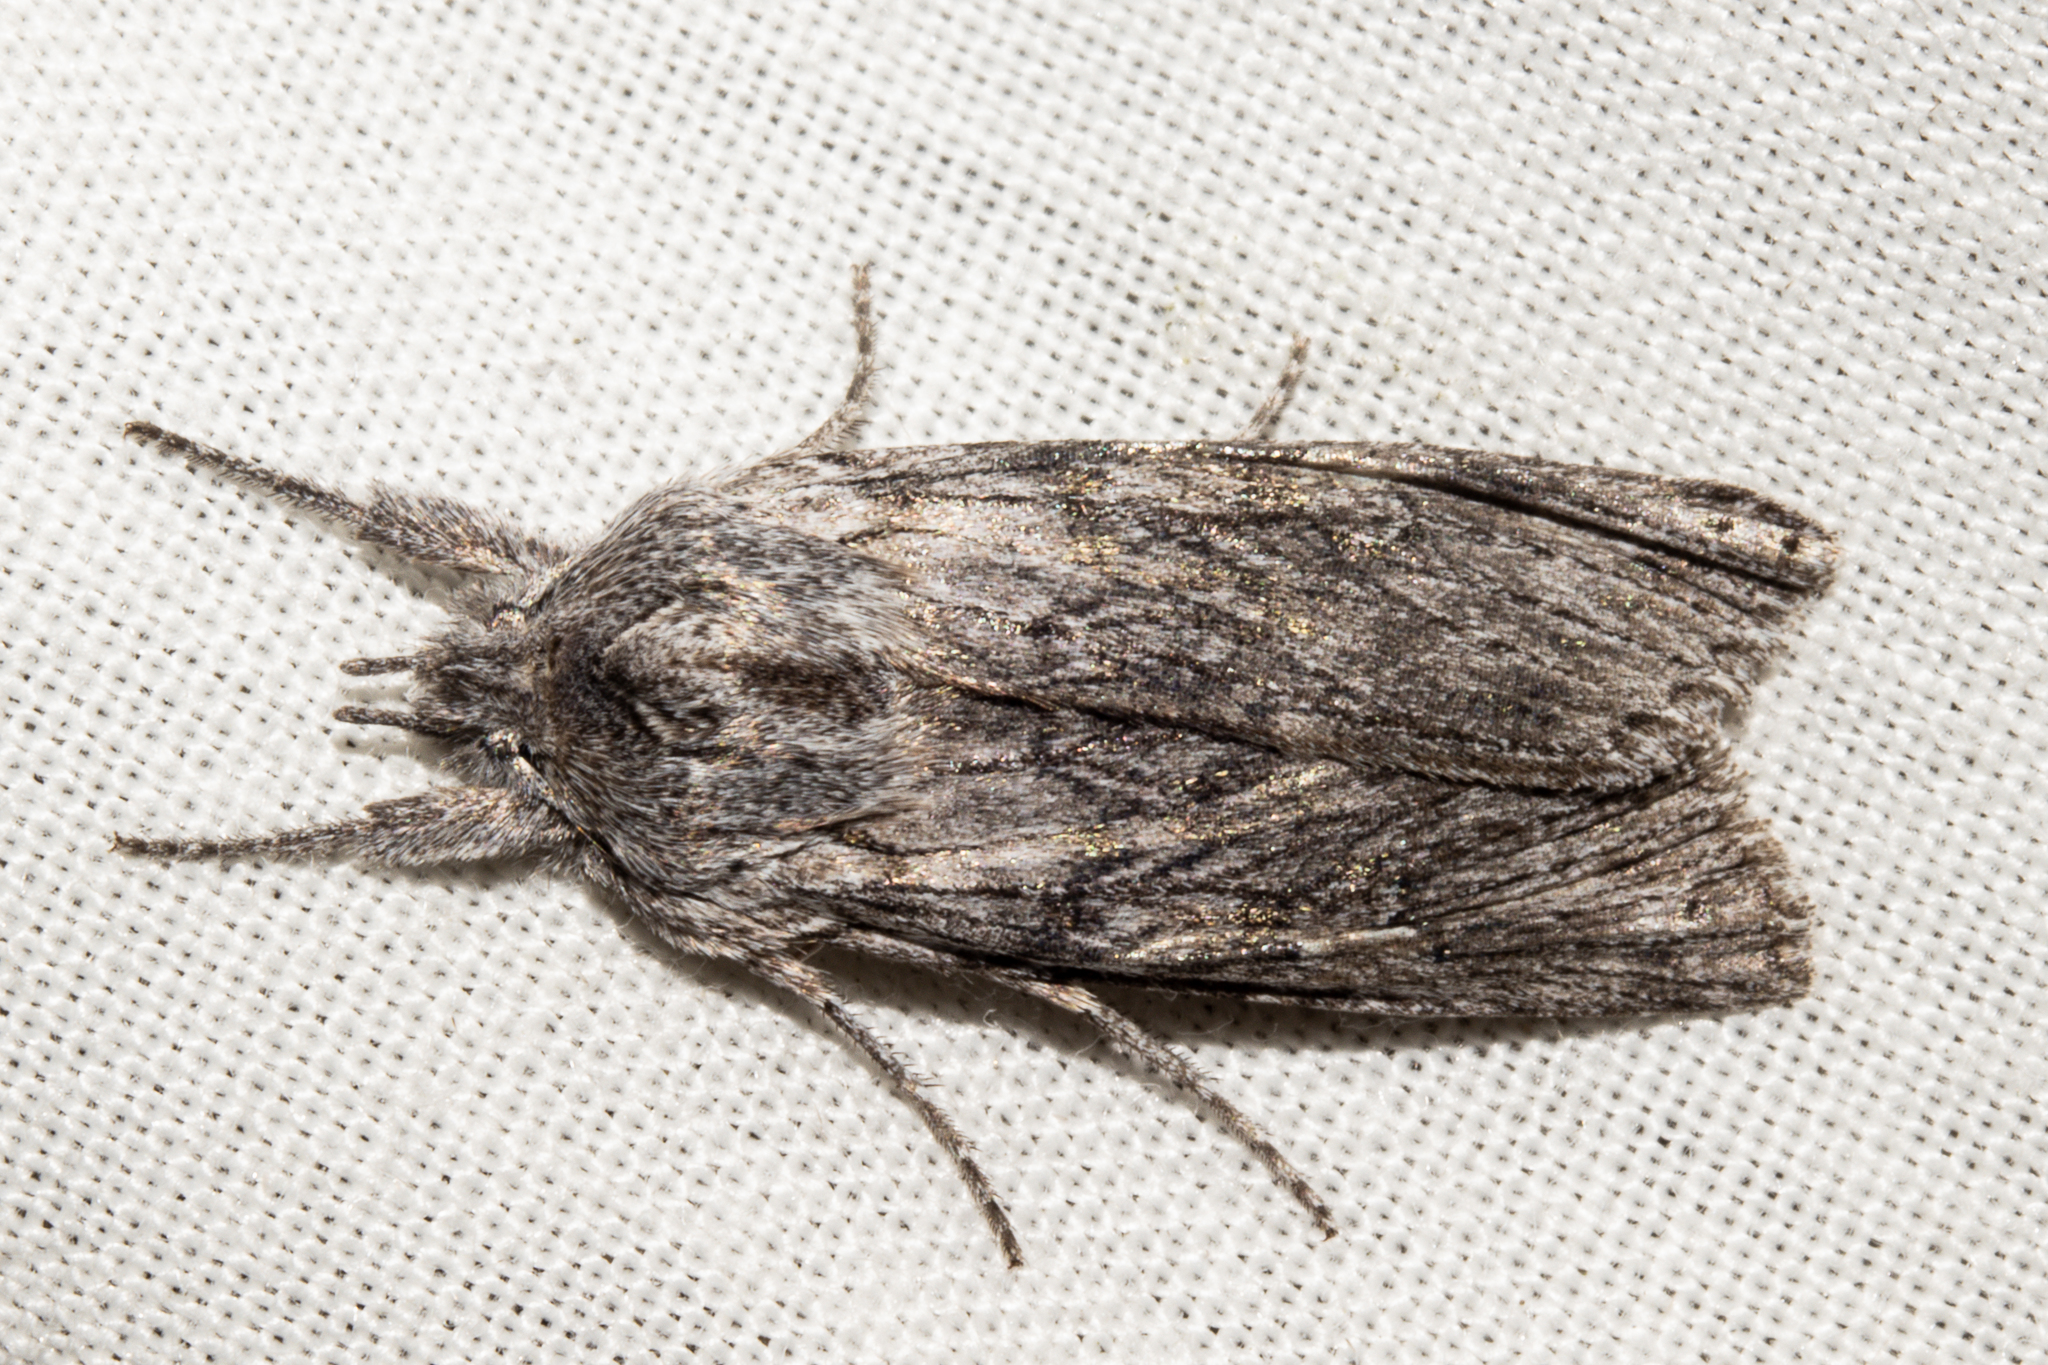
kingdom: Animalia
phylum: Arthropoda
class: Insecta
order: Lepidoptera
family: Noctuidae
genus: Physetica
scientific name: Physetica phricias
